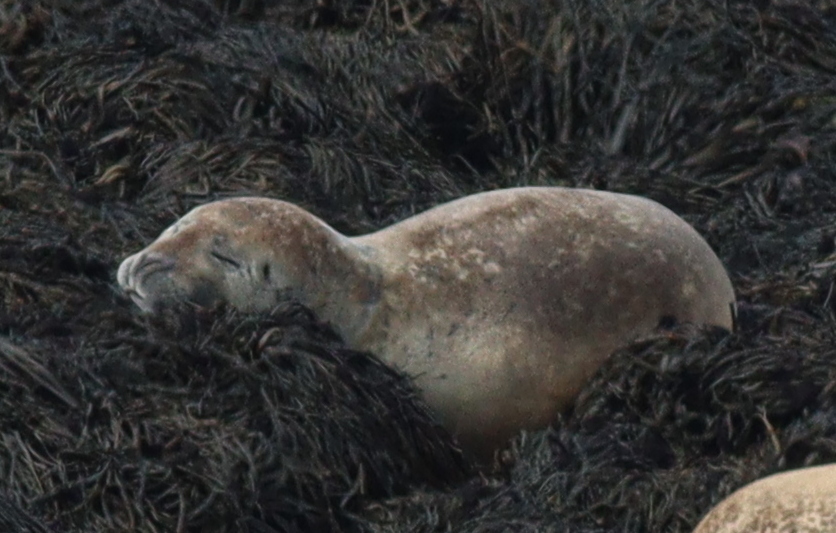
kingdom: Animalia
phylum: Chordata
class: Mammalia
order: Carnivora
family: Phocidae
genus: Phoca
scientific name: Phoca vitulina
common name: Harbor seal
